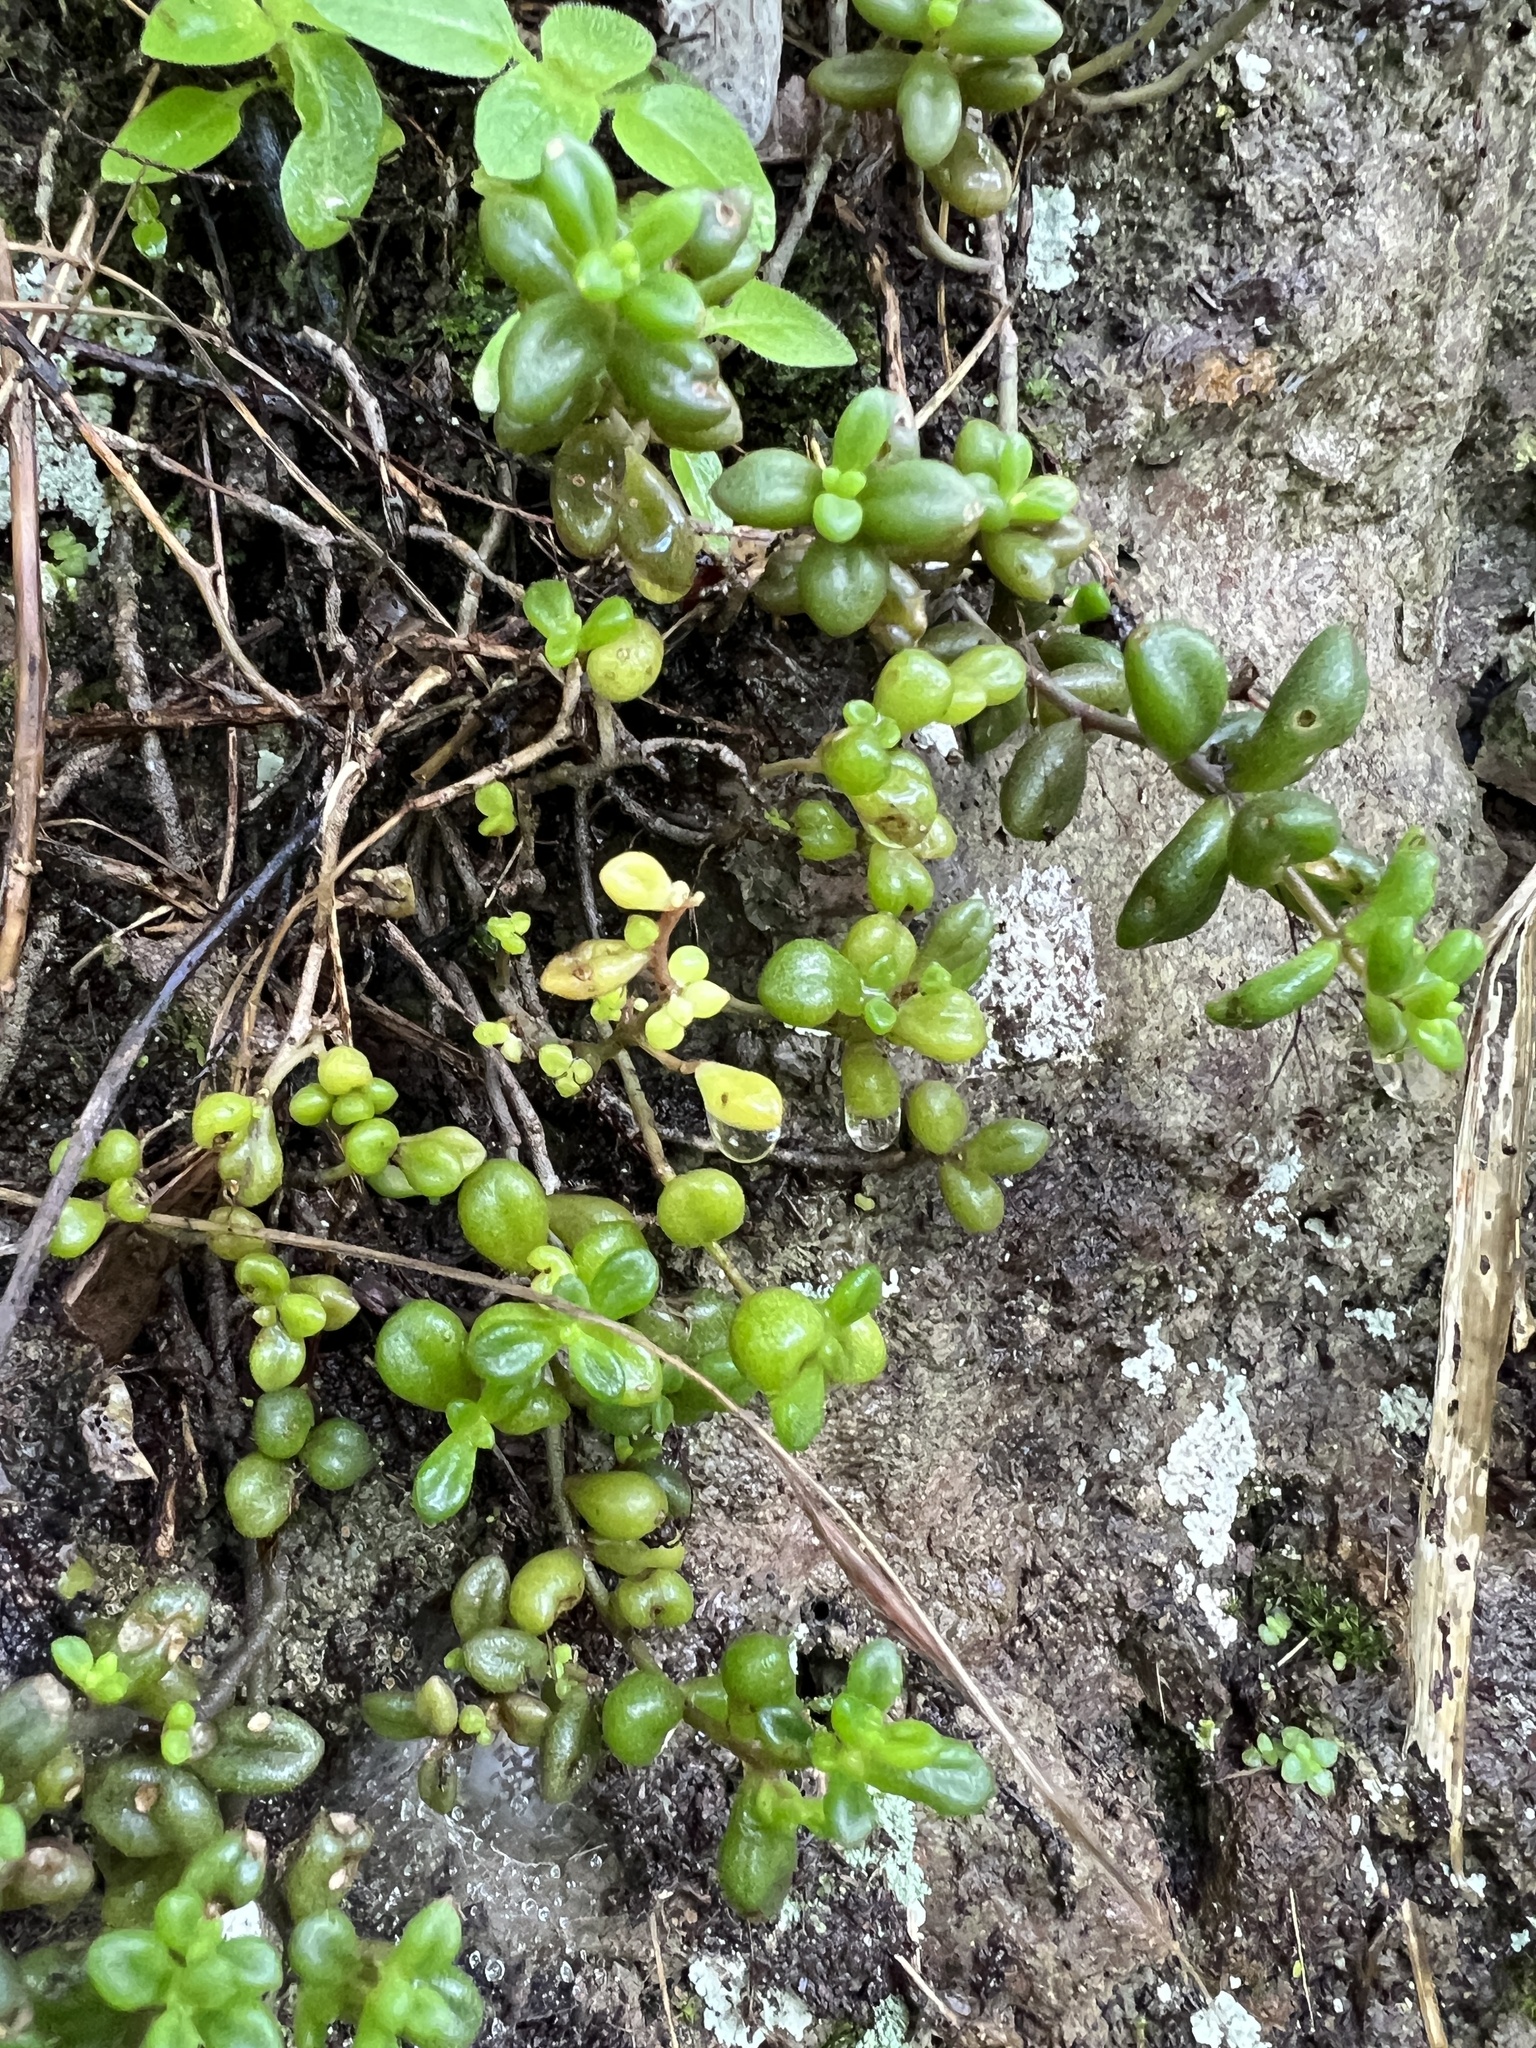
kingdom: Plantae
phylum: Tracheophyta
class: Magnoliopsida
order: Saxifragales
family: Crassulaceae
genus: Monanthes
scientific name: Monanthes laxiflora
